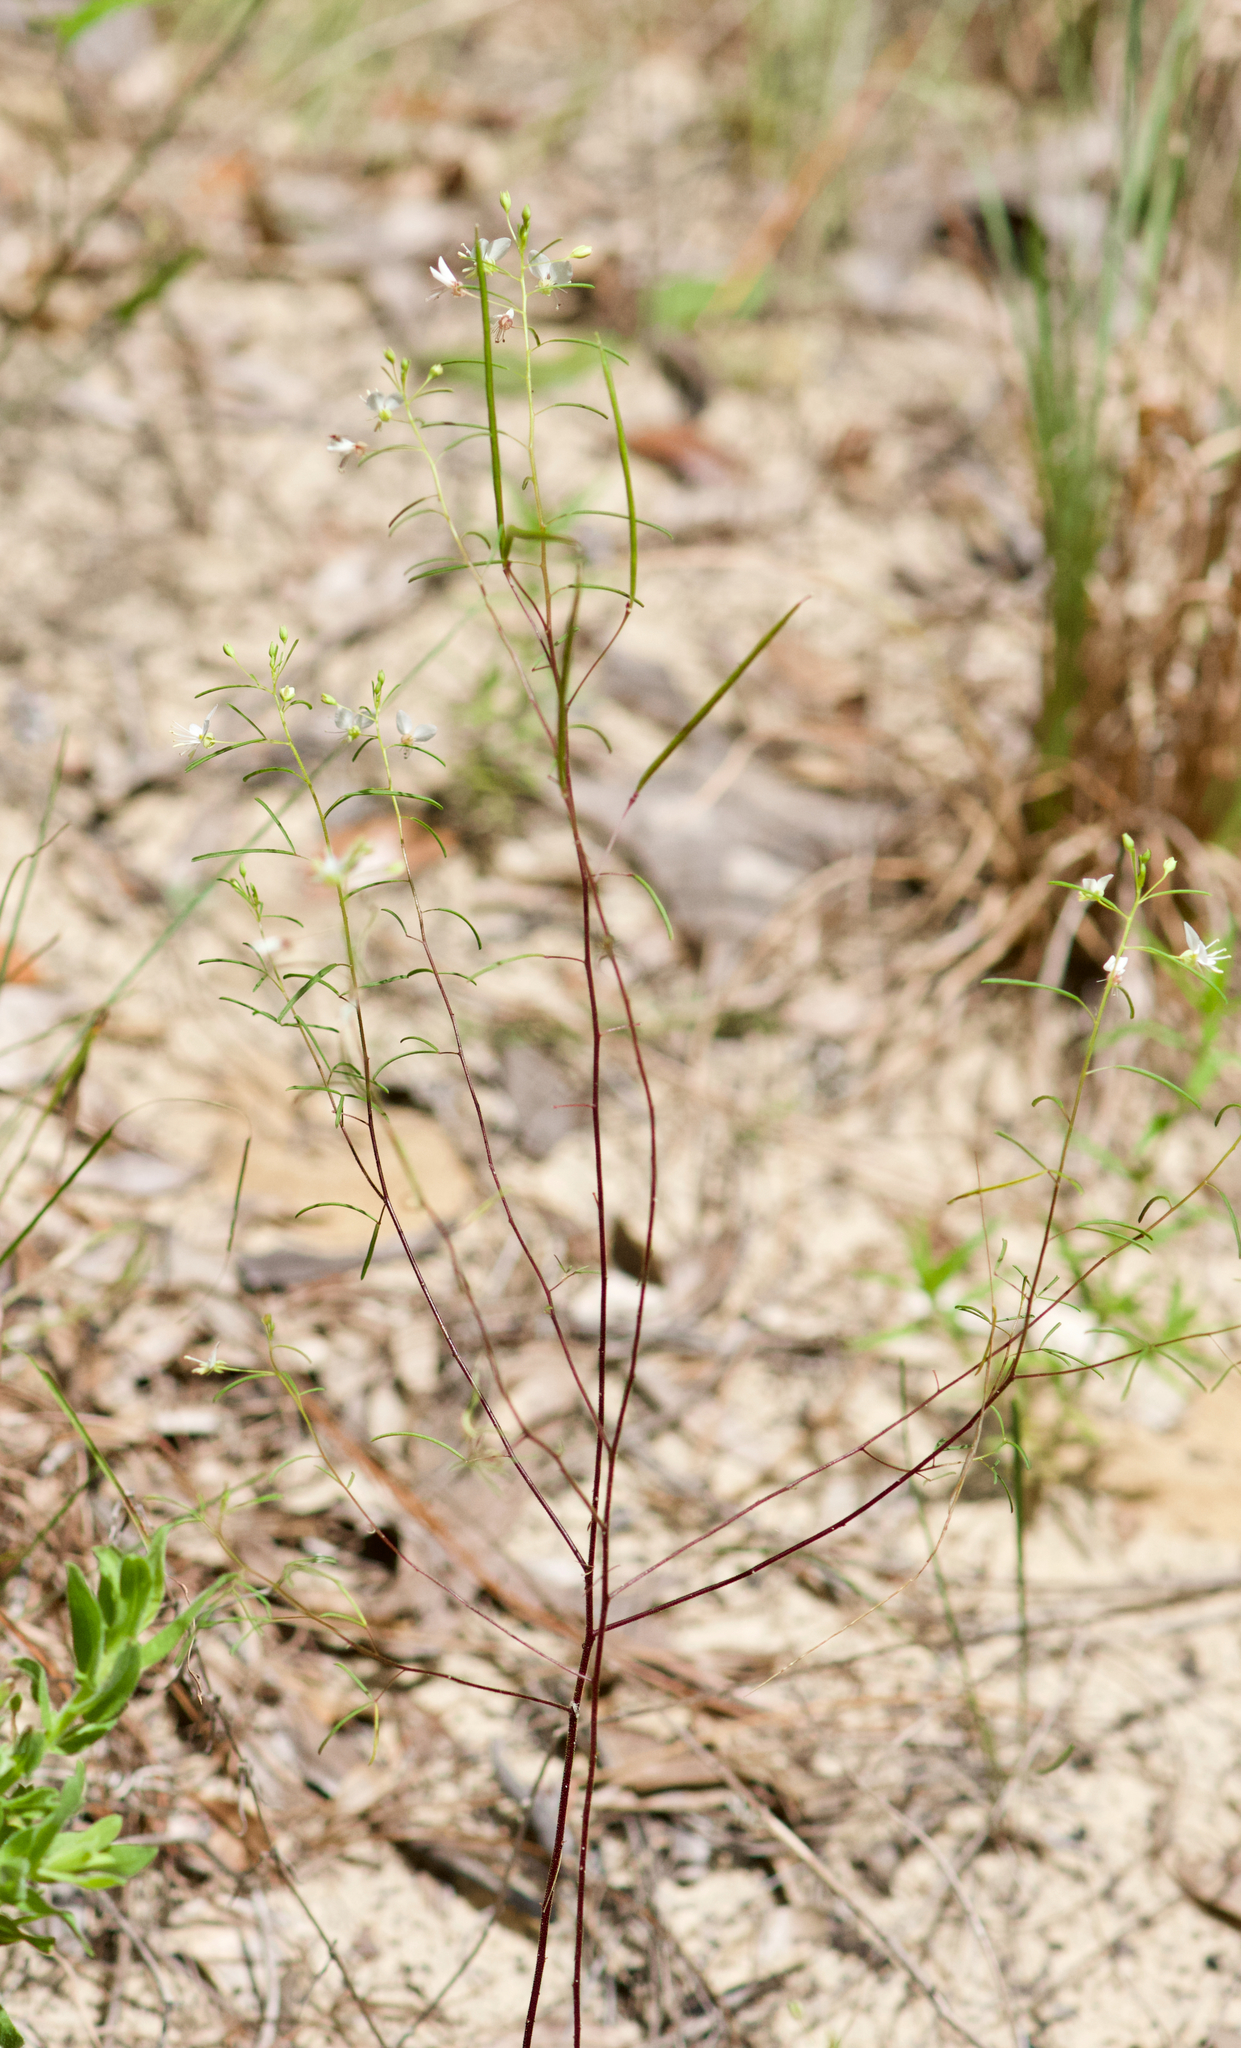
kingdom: Plantae
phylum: Tracheophyta
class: Magnoliopsida
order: Brassicales
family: Cleomaceae
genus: Polanisia
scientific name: Polanisia tenuifolia
